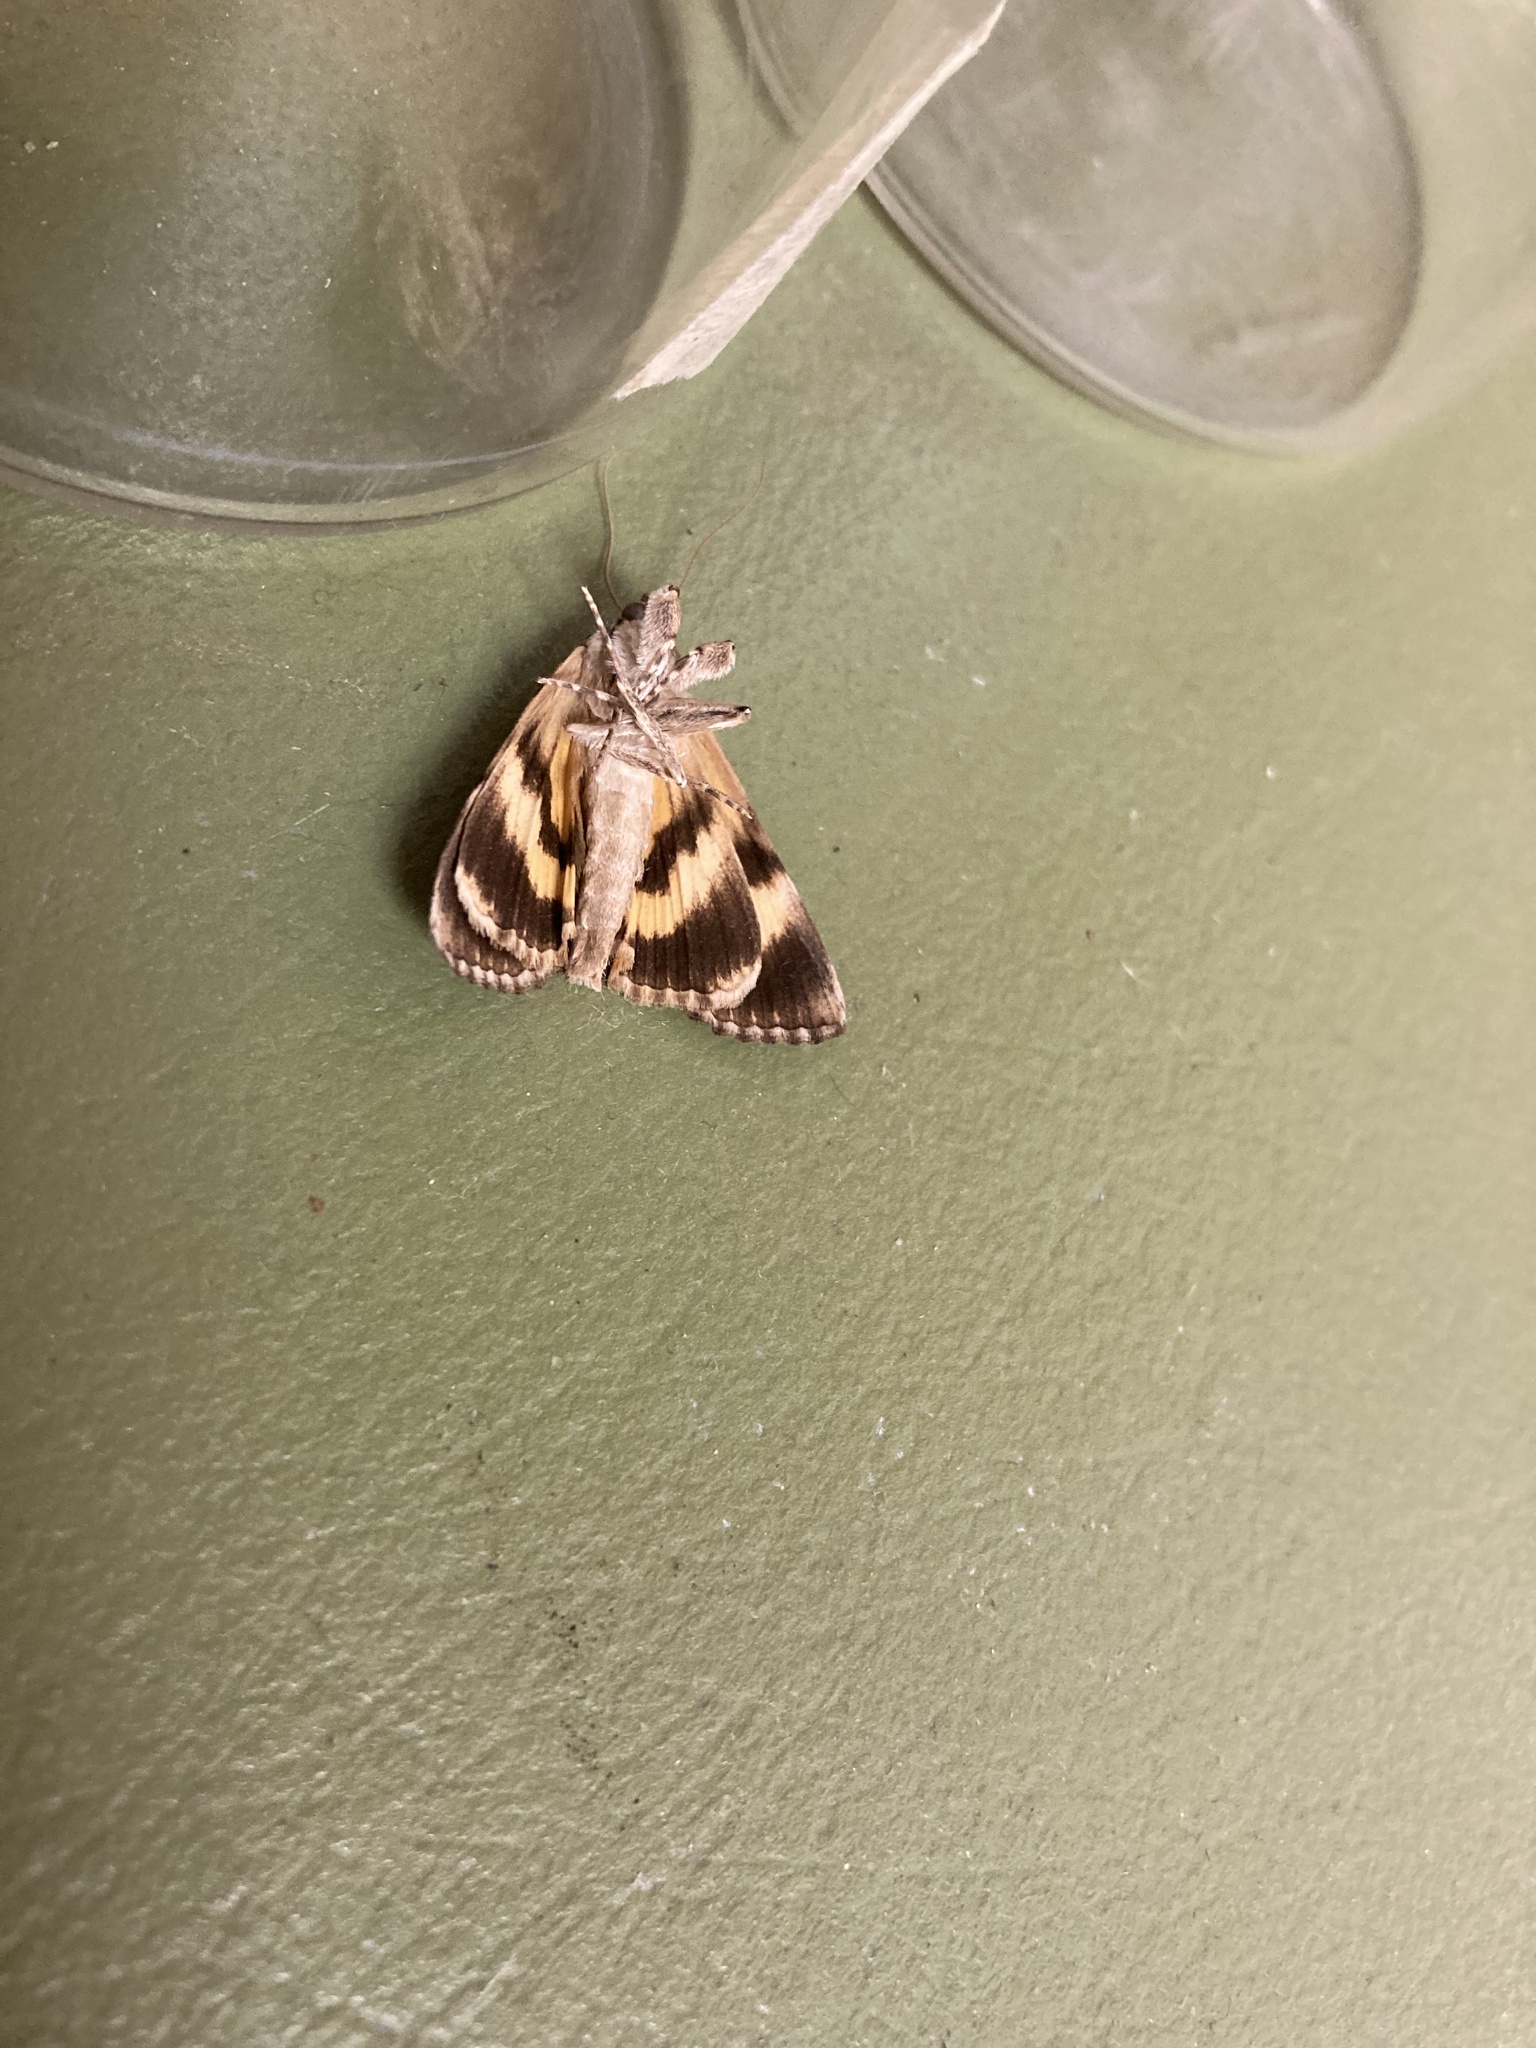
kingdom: Animalia
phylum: Arthropoda
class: Insecta
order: Lepidoptera
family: Erebidae
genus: Catocala
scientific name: Catocala micronympha
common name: Little nymph underwing
